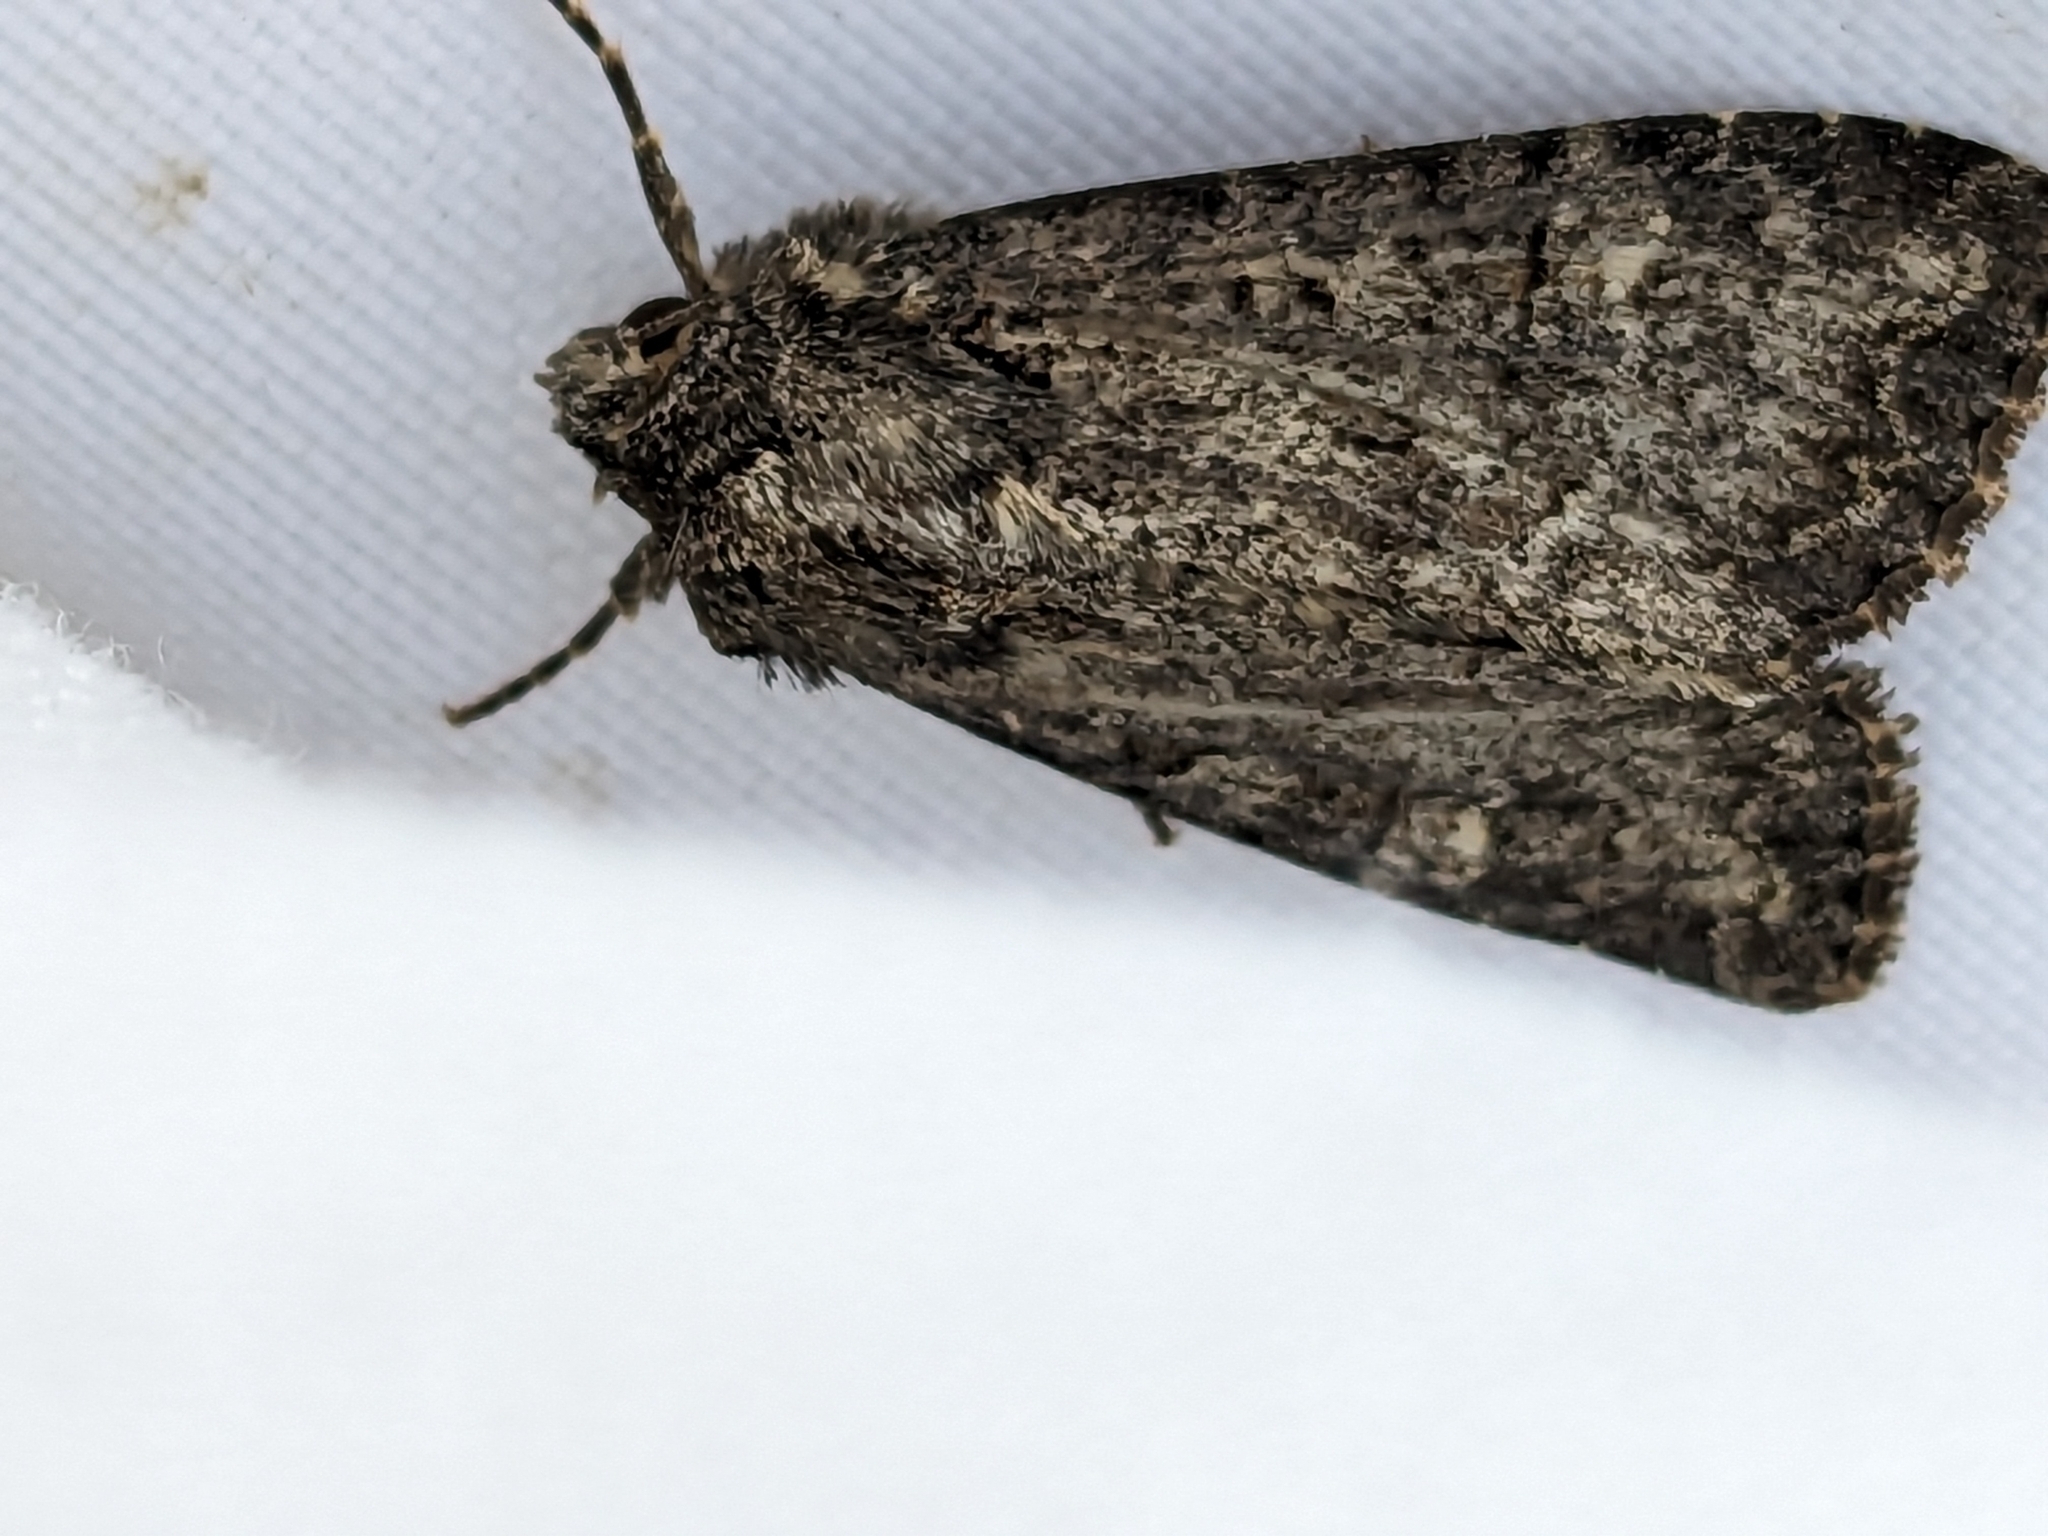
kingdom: Animalia
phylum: Arthropoda
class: Insecta
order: Lepidoptera
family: Noctuidae
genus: Mamestra
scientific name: Mamestra brassicae
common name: Cabbage moth
